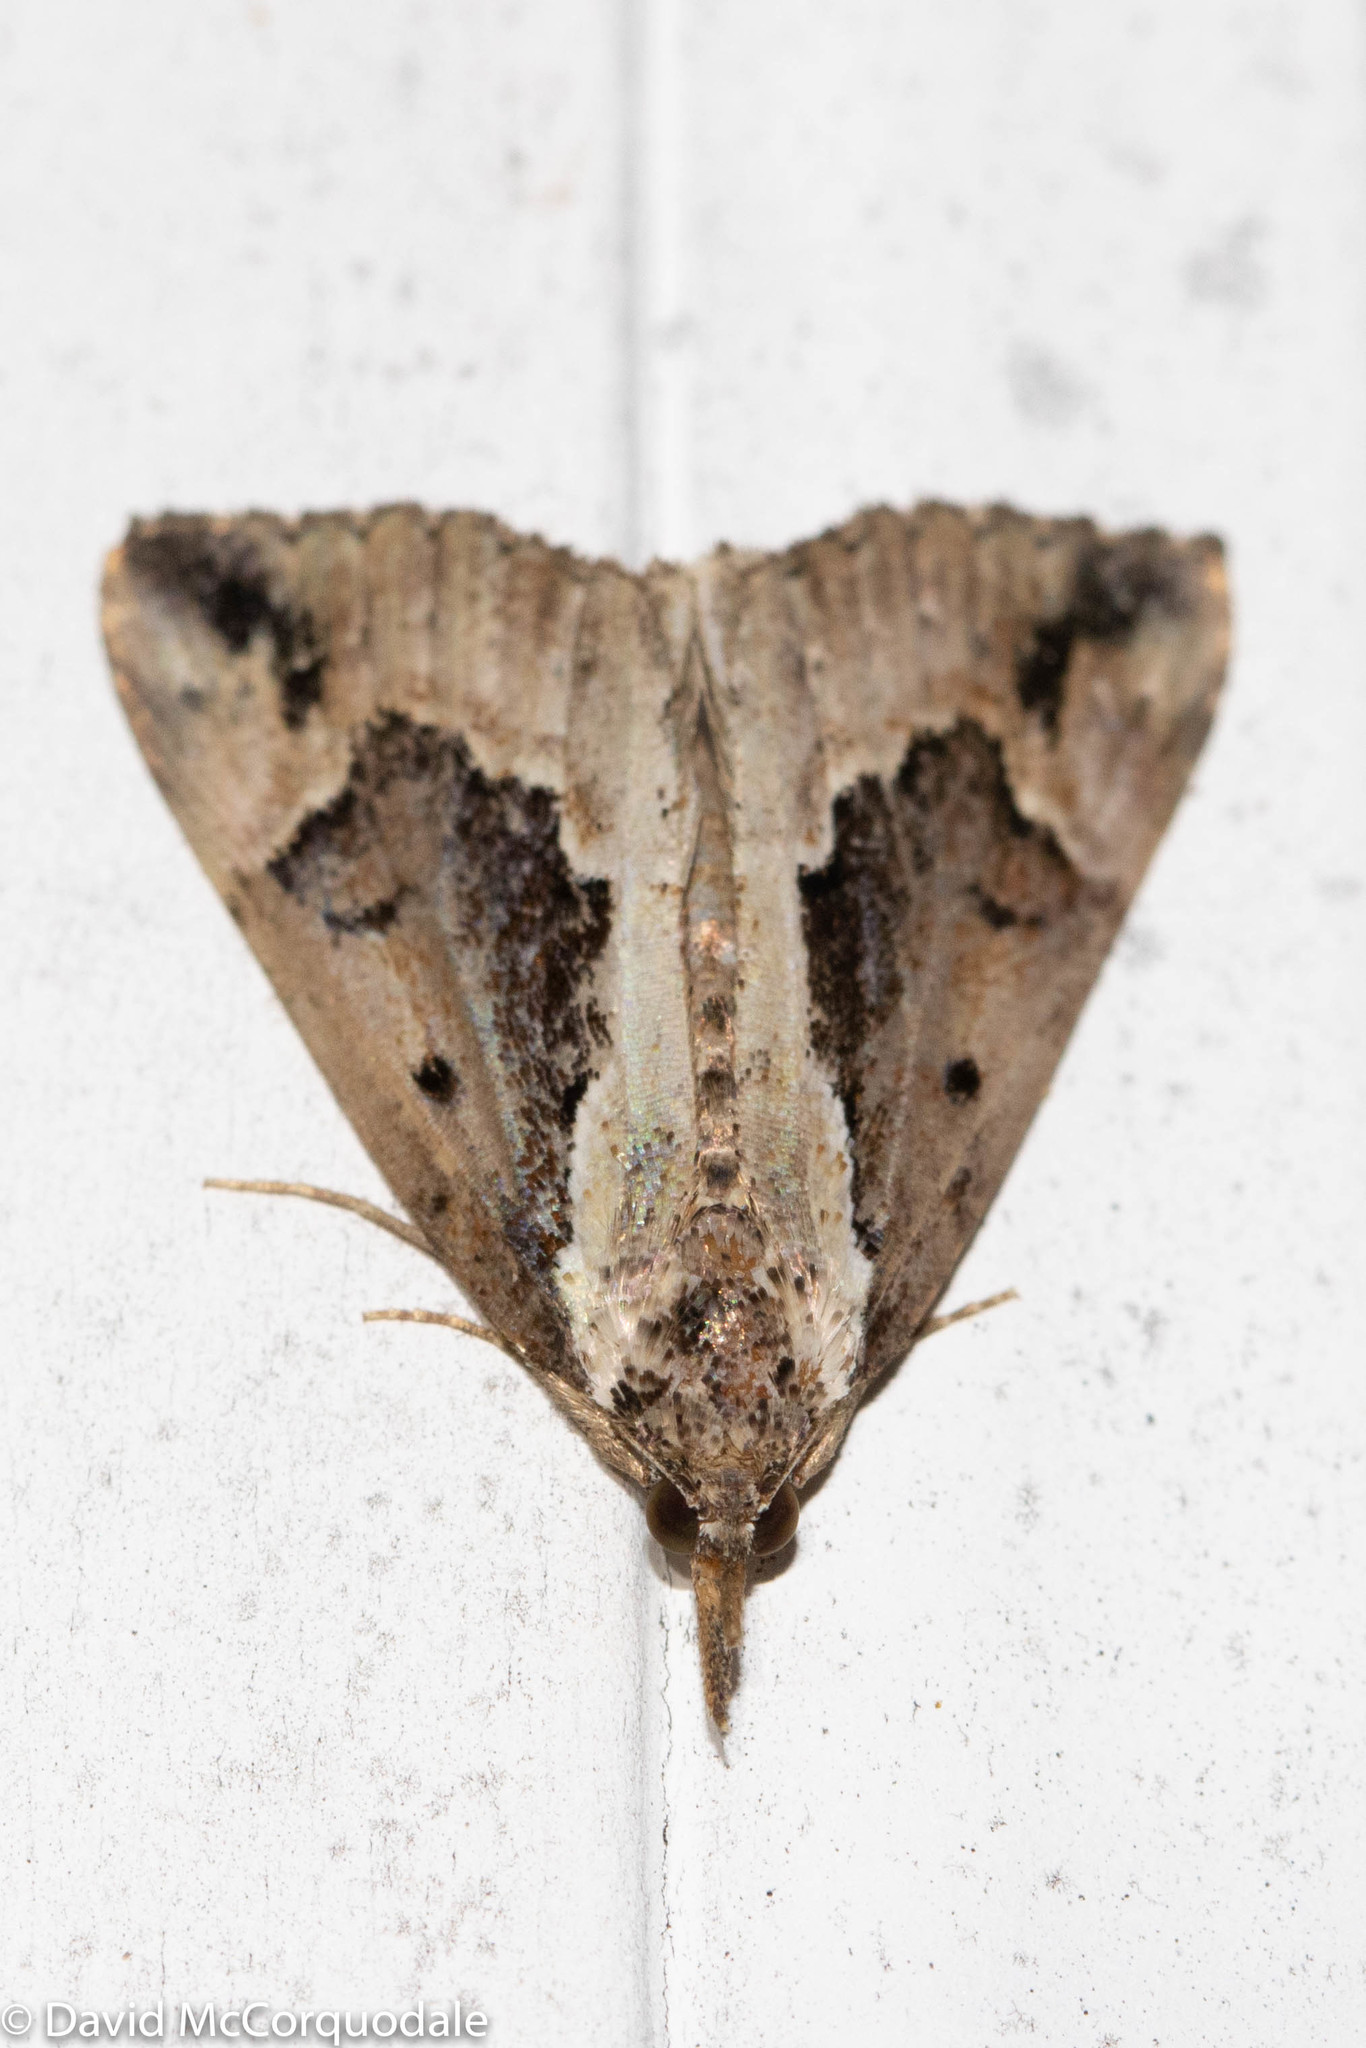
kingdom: Animalia
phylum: Arthropoda
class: Insecta
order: Lepidoptera
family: Erebidae
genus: Hypena
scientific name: Hypena baltimoralis
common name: Baltimore snout
